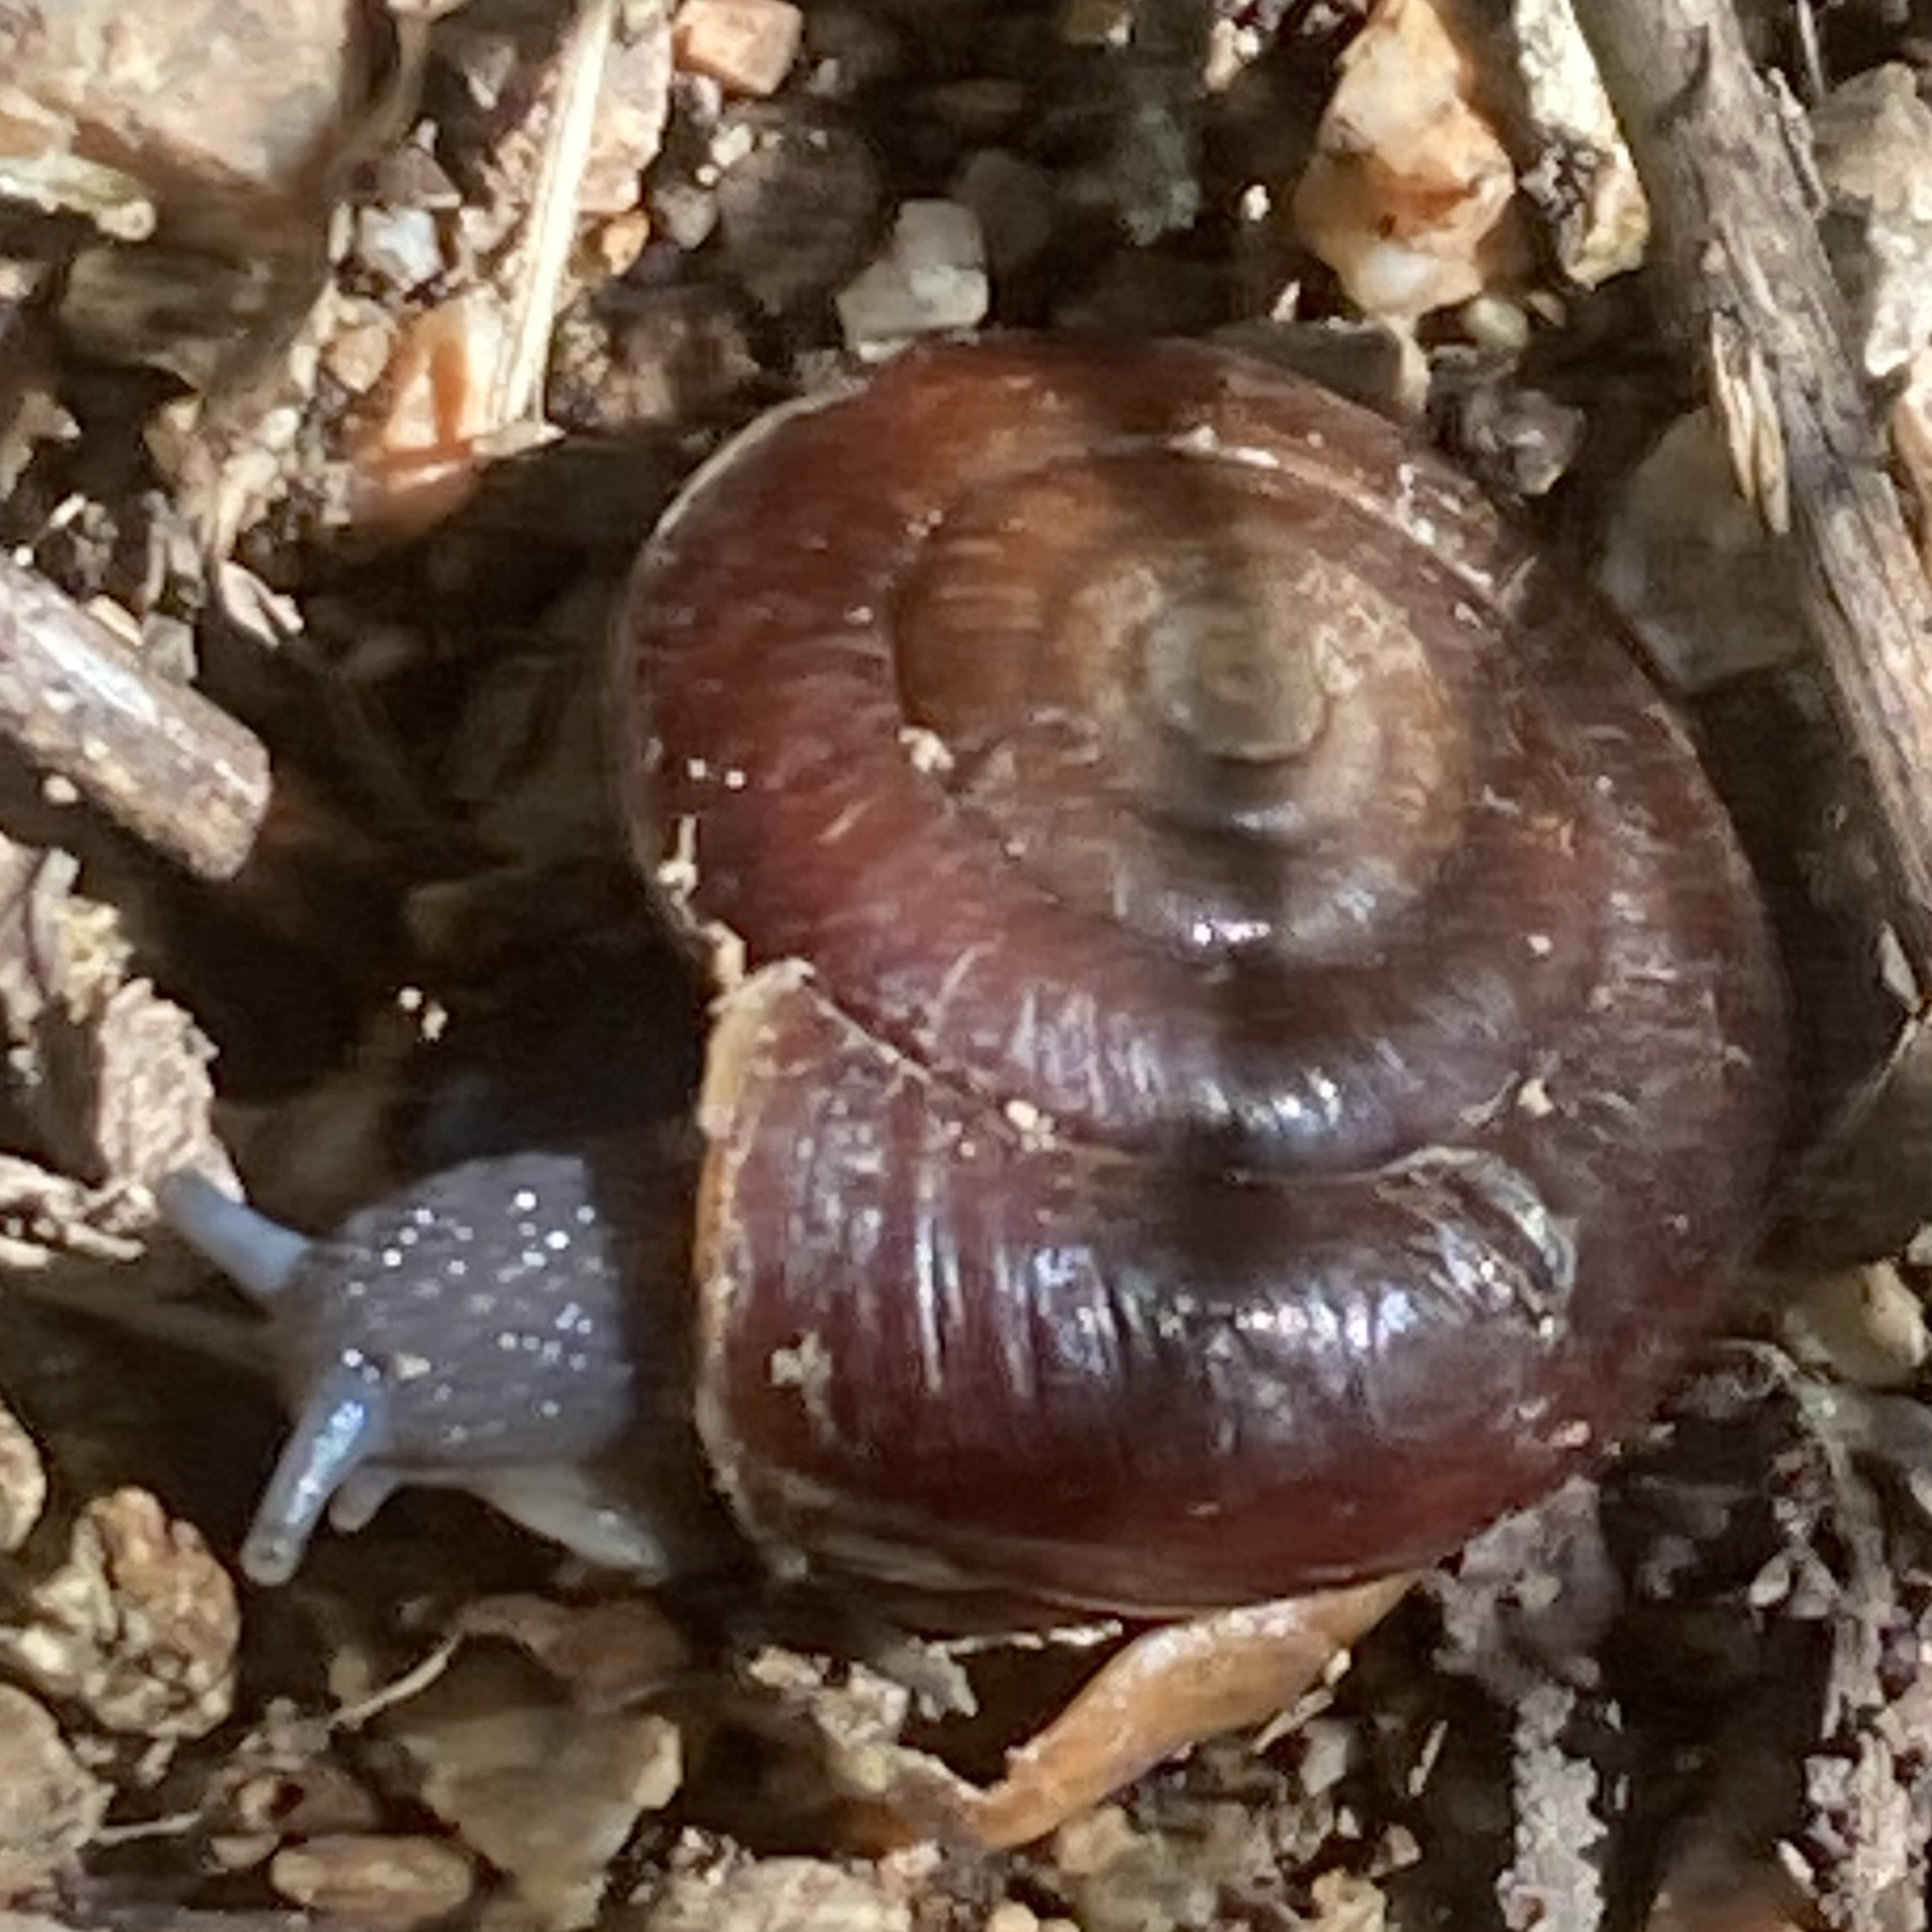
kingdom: Animalia
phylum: Mollusca
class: Gastropoda
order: Stylommatophora
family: Megomphicidae
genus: Glyptostoma
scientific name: Glyptostoma gabrielense
